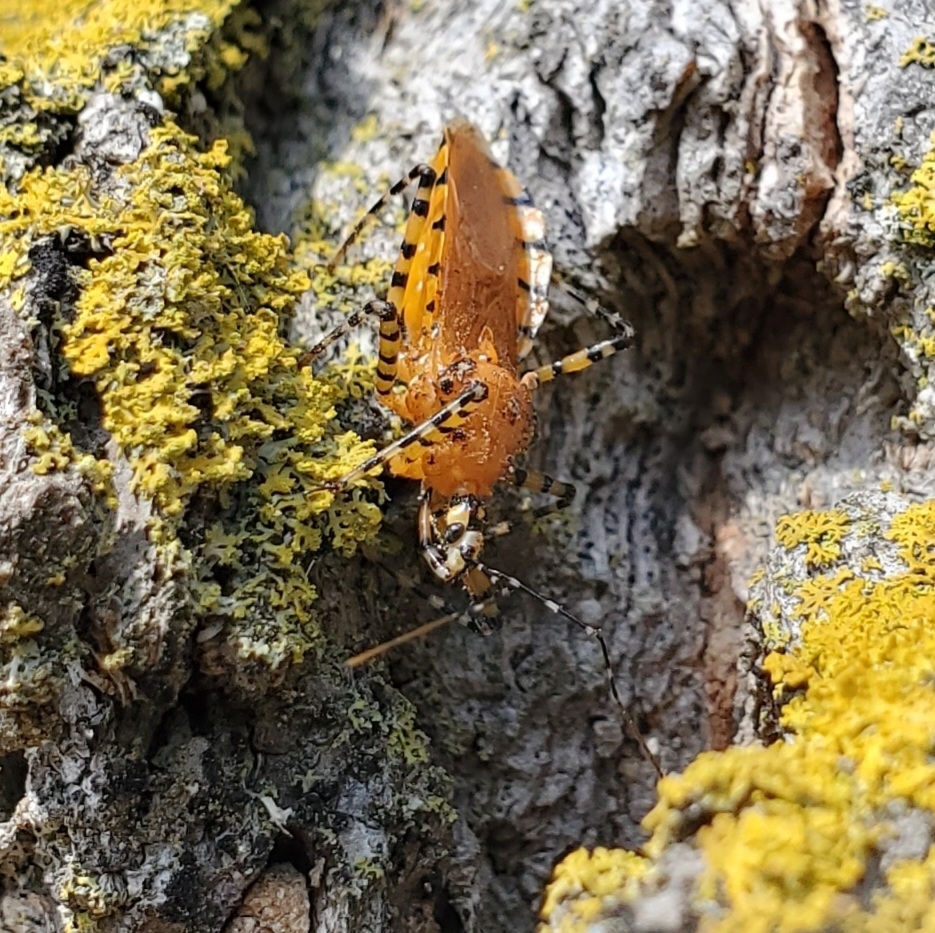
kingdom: Animalia
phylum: Arthropoda
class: Insecta
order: Hemiptera
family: Reduviidae
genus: Pselliopus
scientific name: Pselliopus barberi
